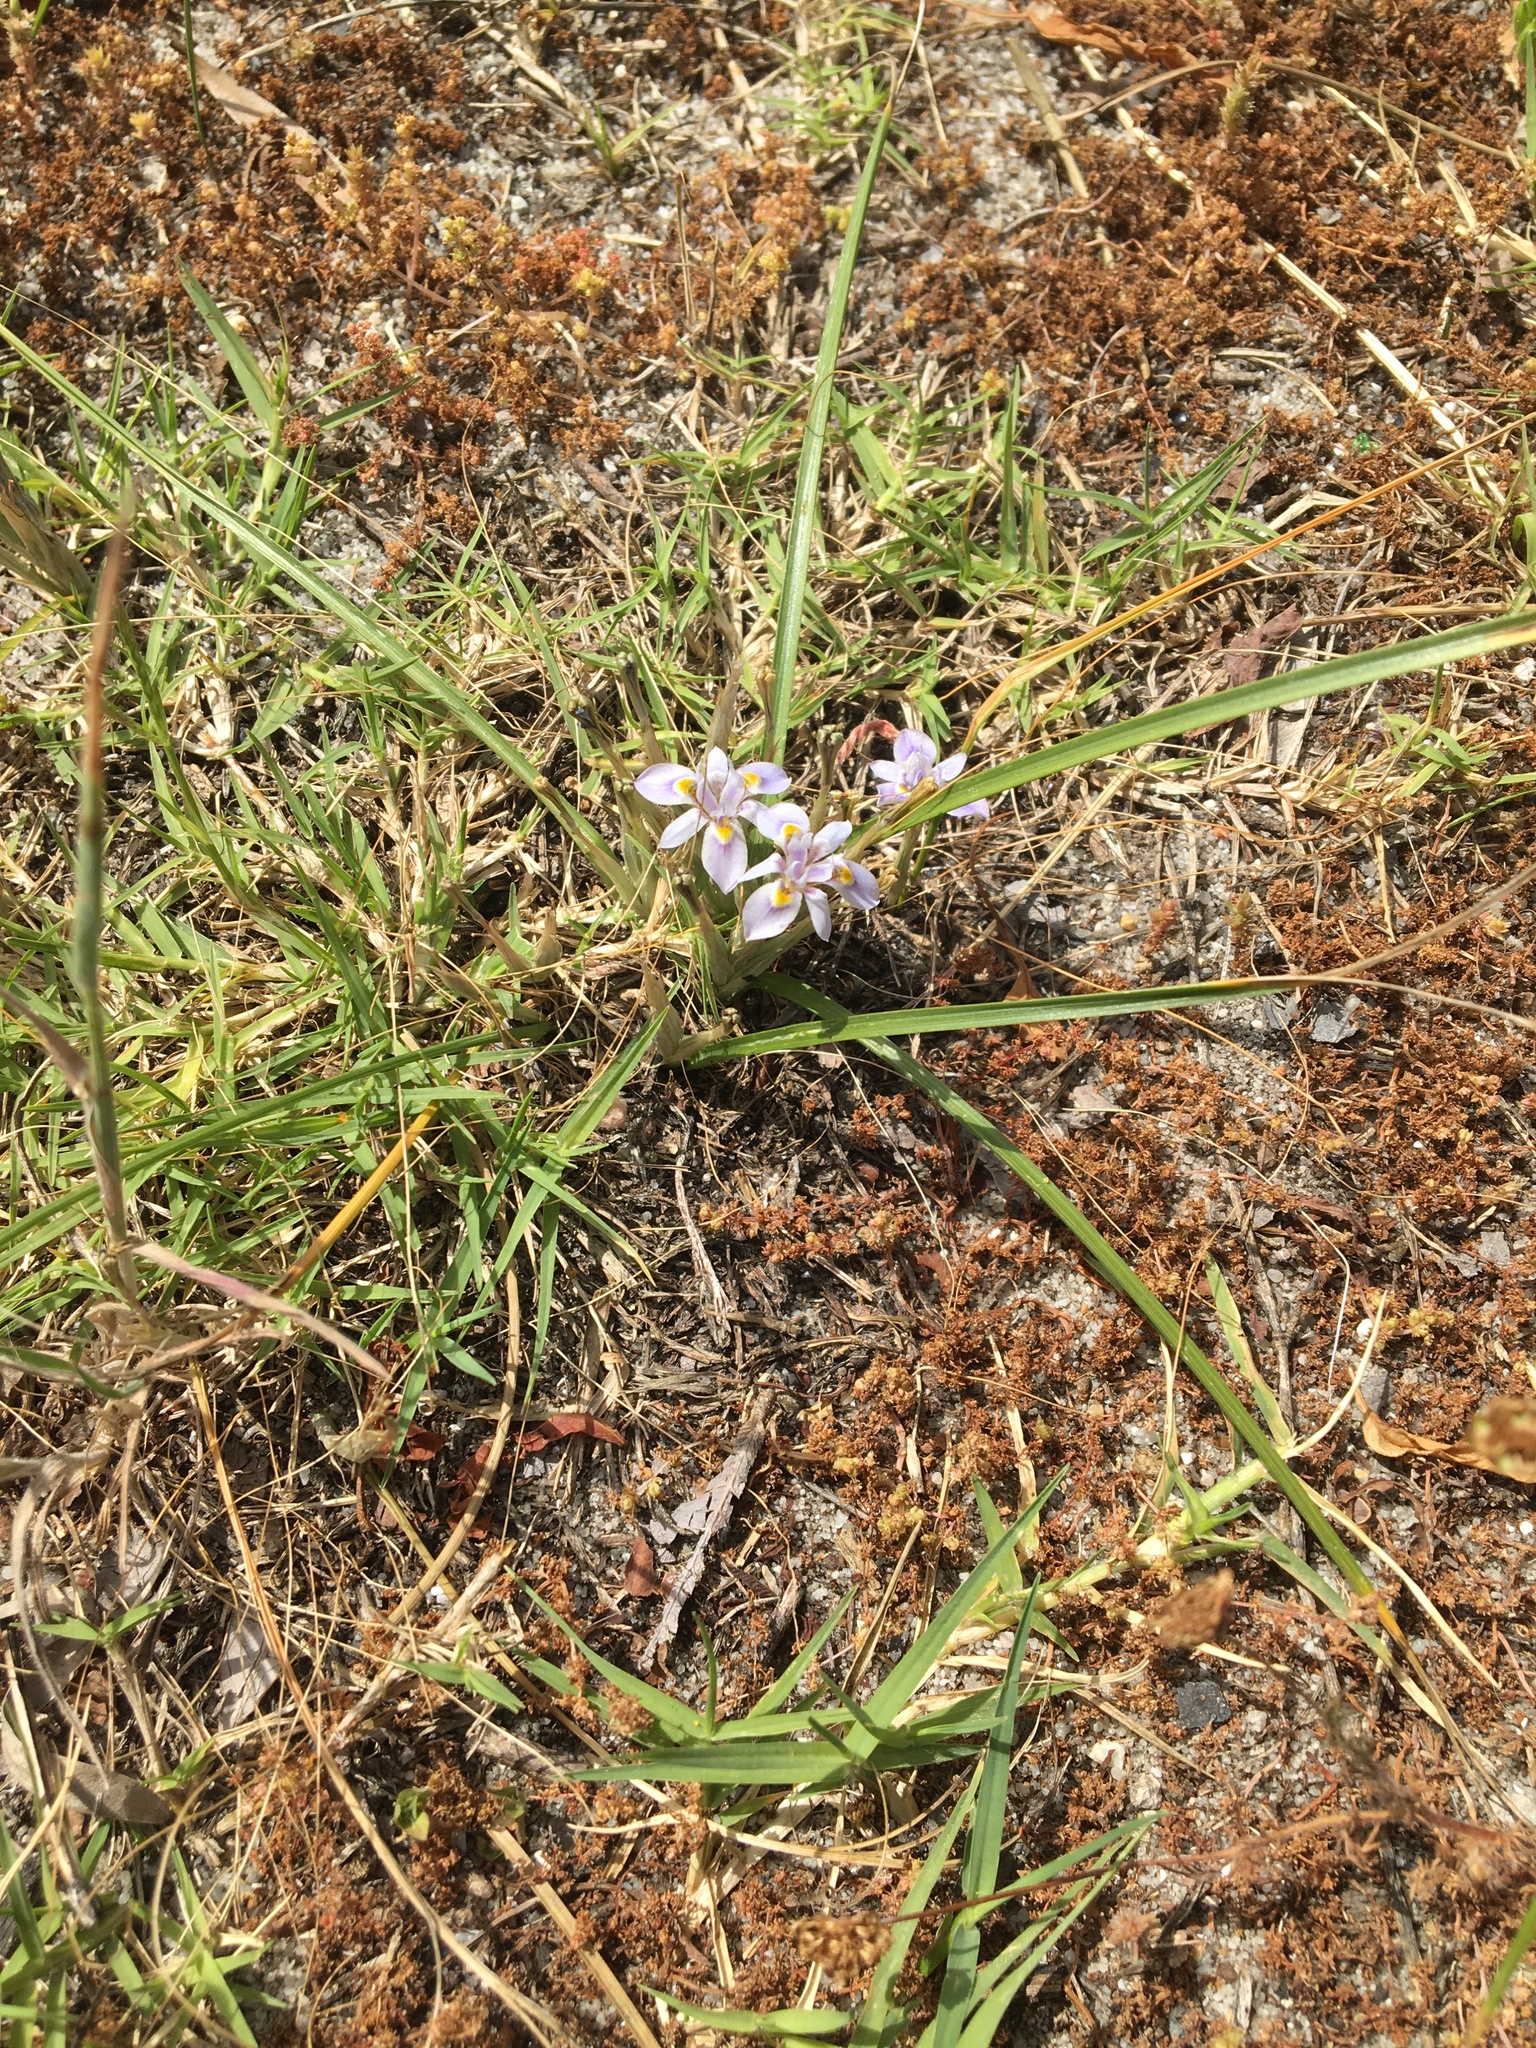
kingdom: Plantae
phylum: Tracheophyta
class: Liliopsida
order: Asparagales
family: Iridaceae
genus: Moraea
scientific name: Moraea setifolia
